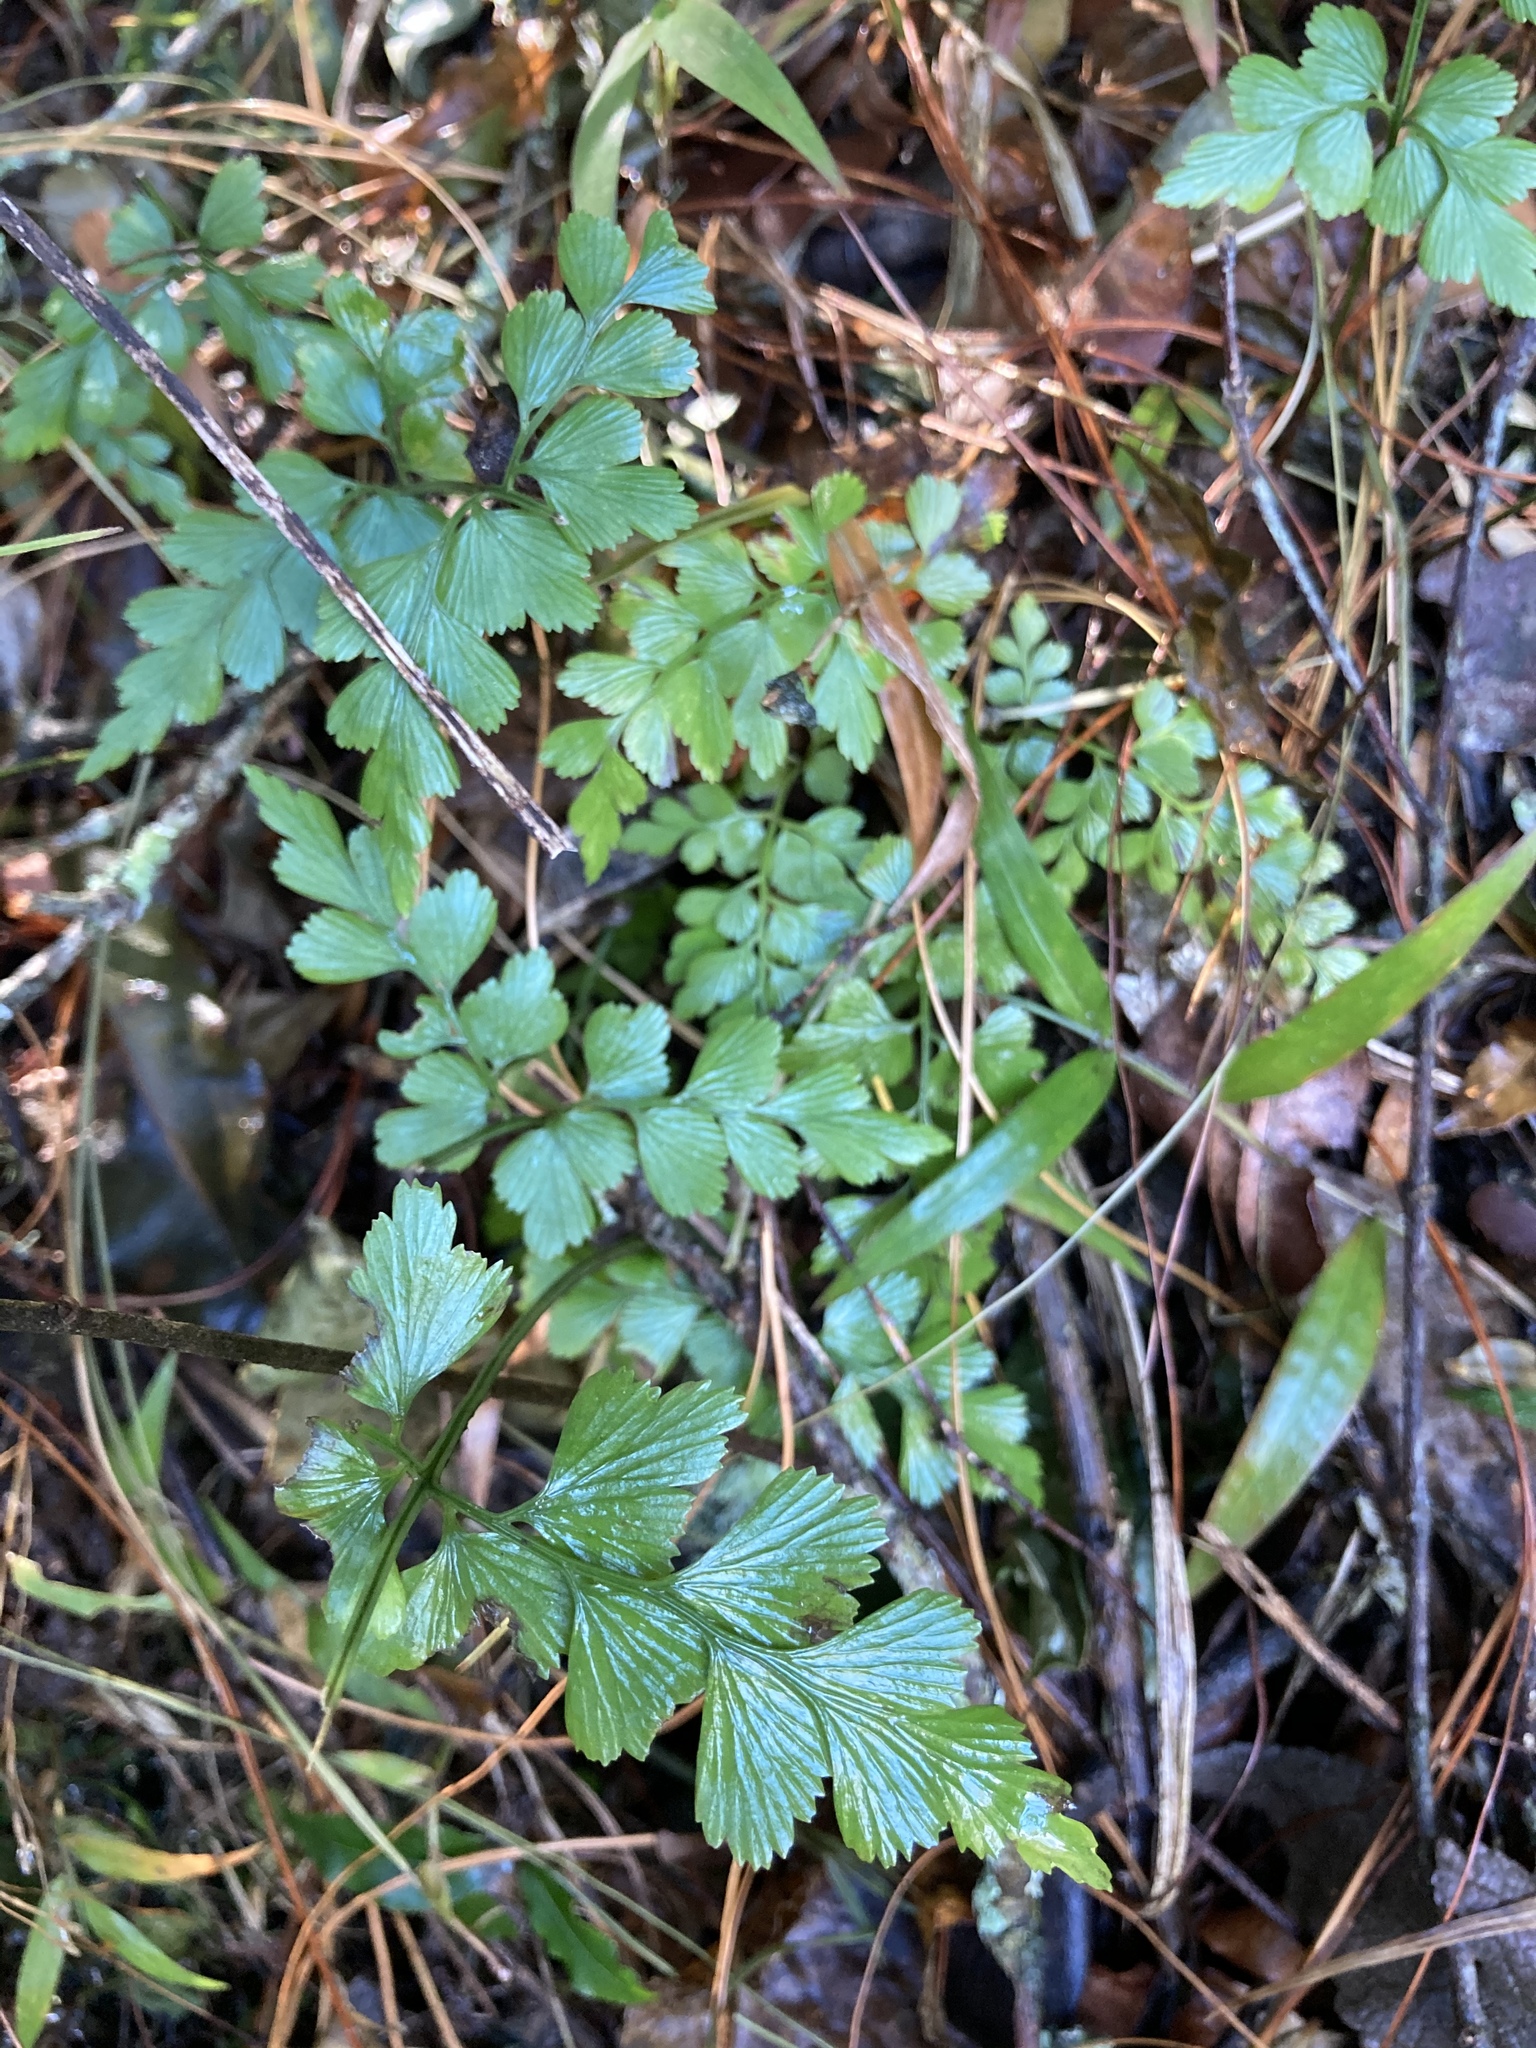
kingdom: Plantae
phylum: Tracheophyta
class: Polypodiopsida
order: Polypodiales
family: Aspleniaceae
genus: Asplenium
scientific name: Asplenium splendens
